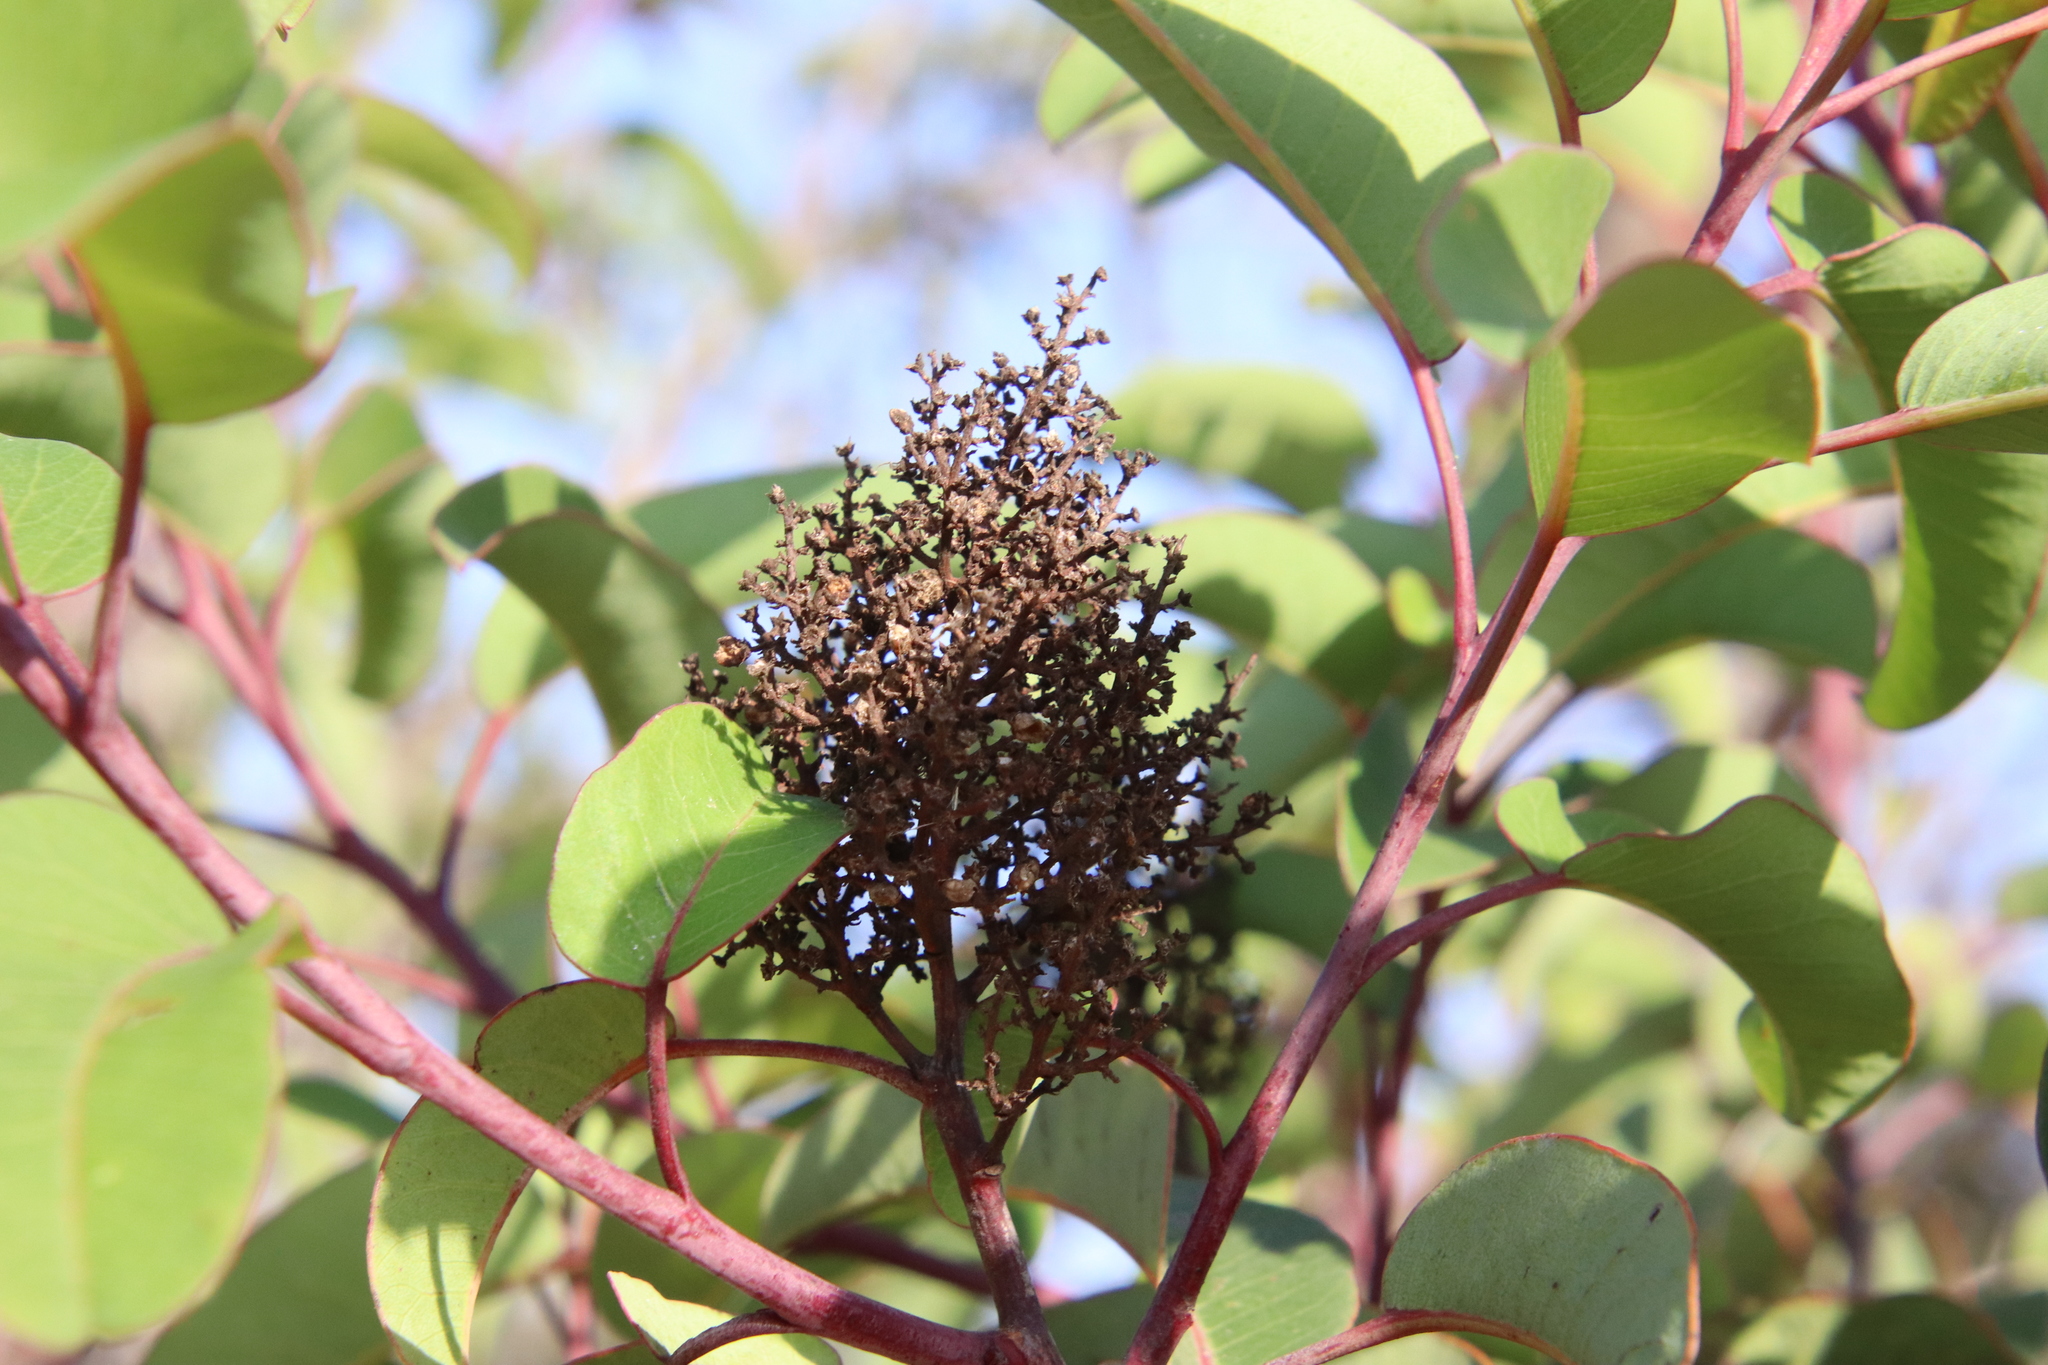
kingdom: Plantae
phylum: Tracheophyta
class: Magnoliopsida
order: Sapindales
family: Anacardiaceae
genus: Malosma
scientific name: Malosma laurina
